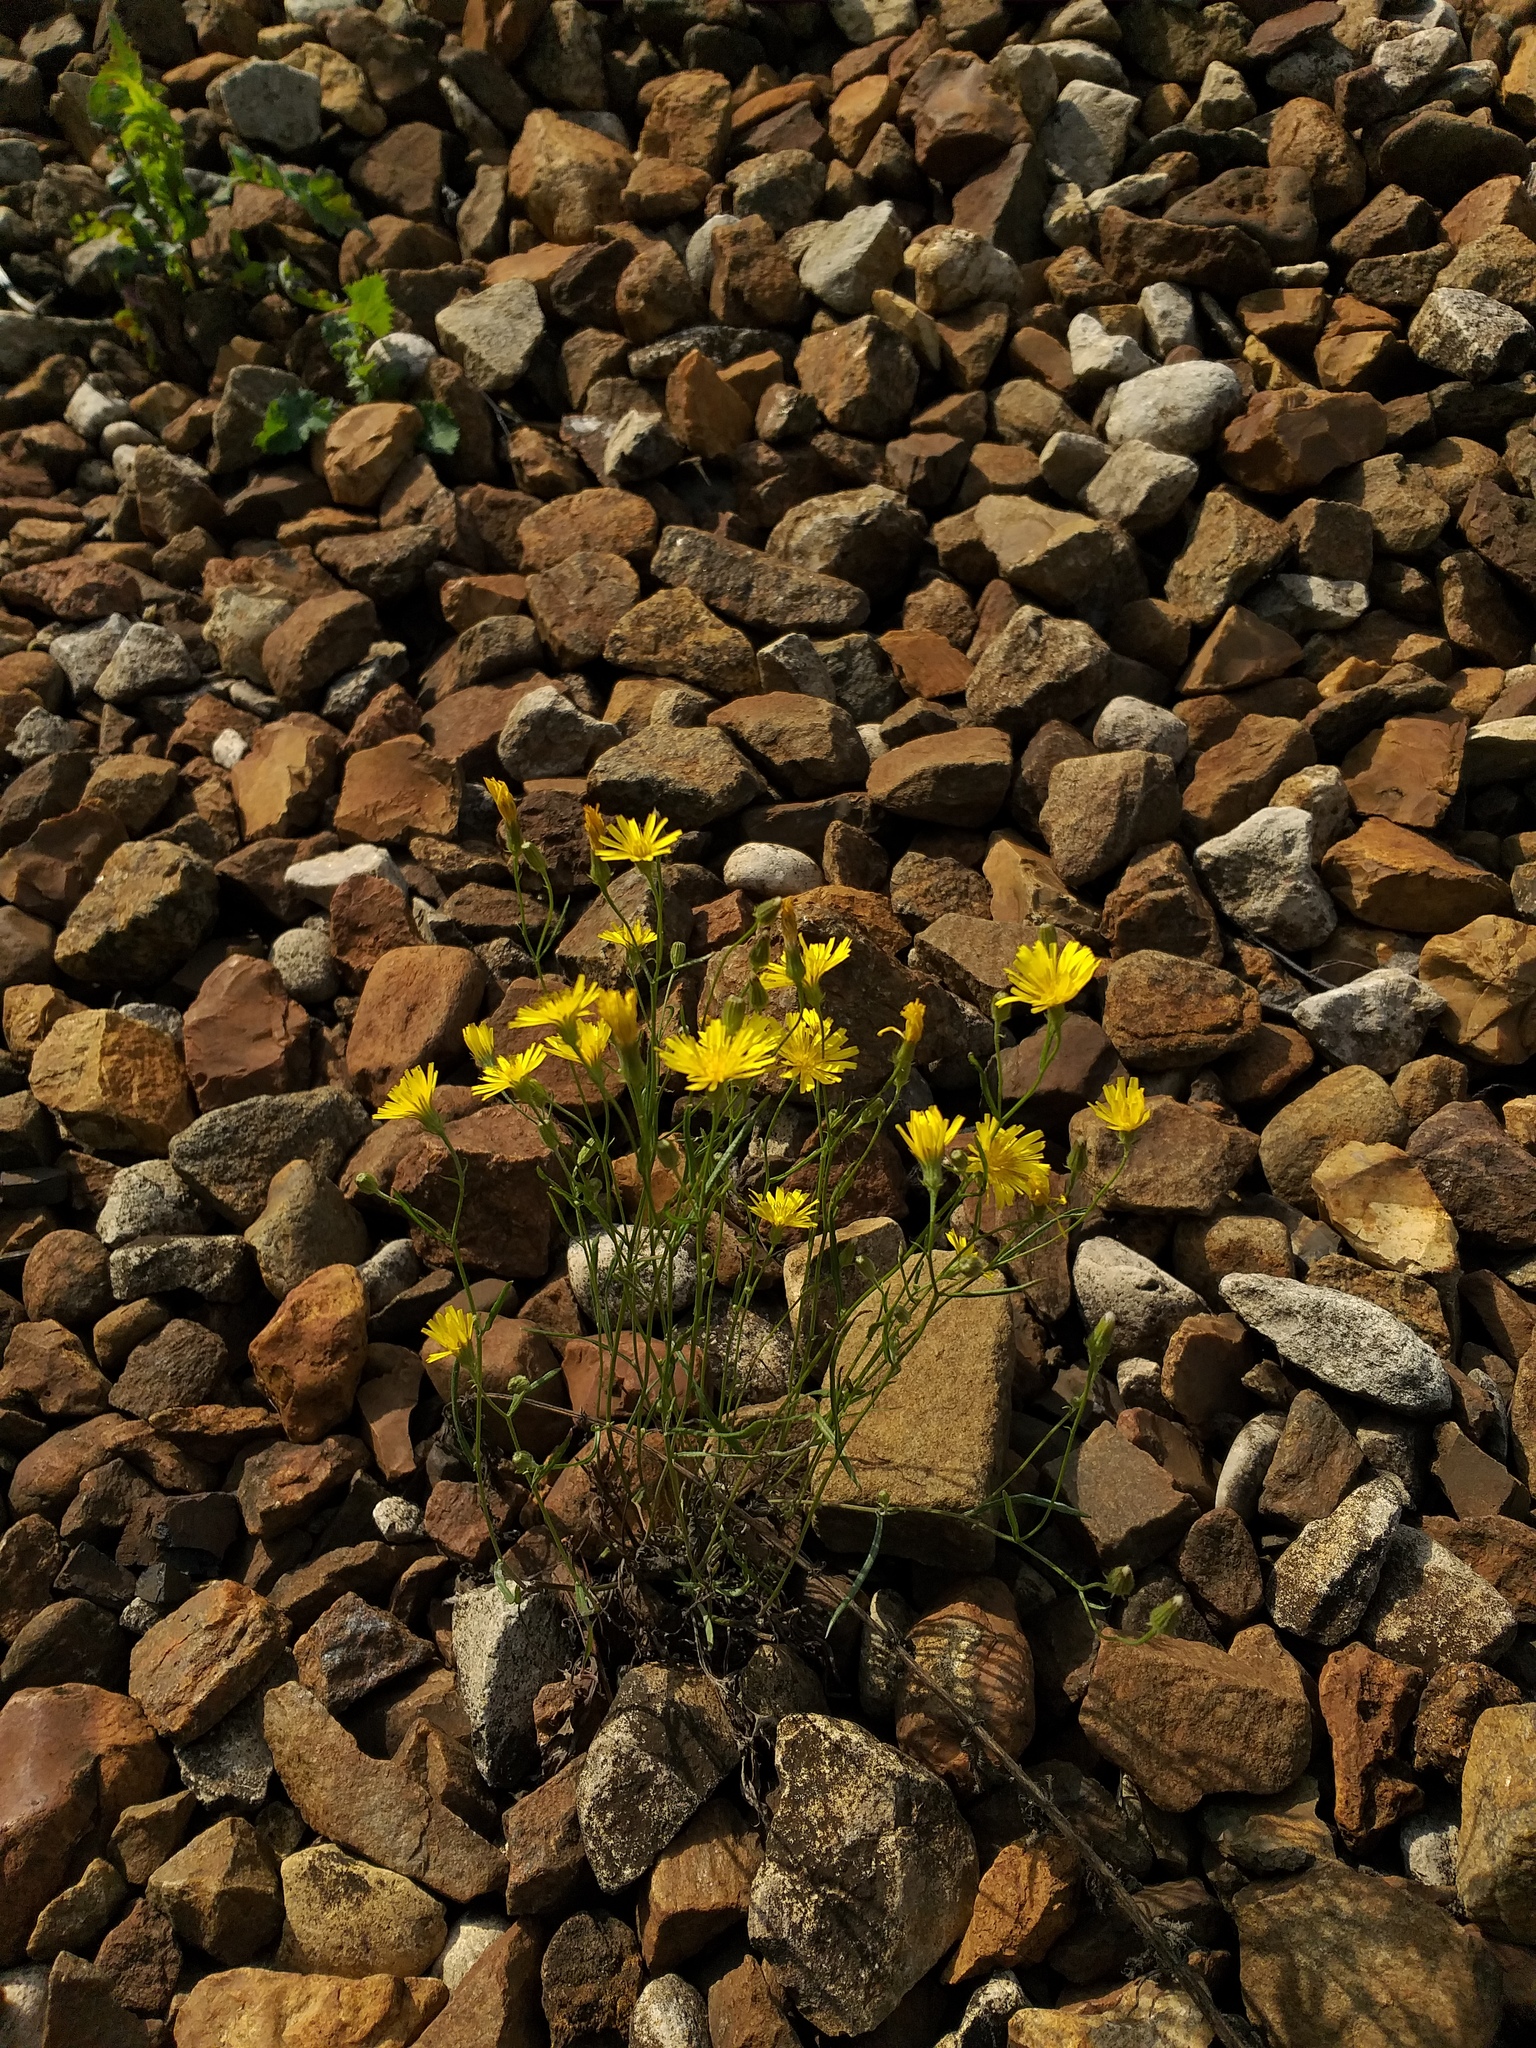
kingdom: Plantae
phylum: Tracheophyta
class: Magnoliopsida
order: Asterales
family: Asteraceae
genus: Crepis
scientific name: Crepis tectorum
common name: Narrow-leaved hawk's-beard
